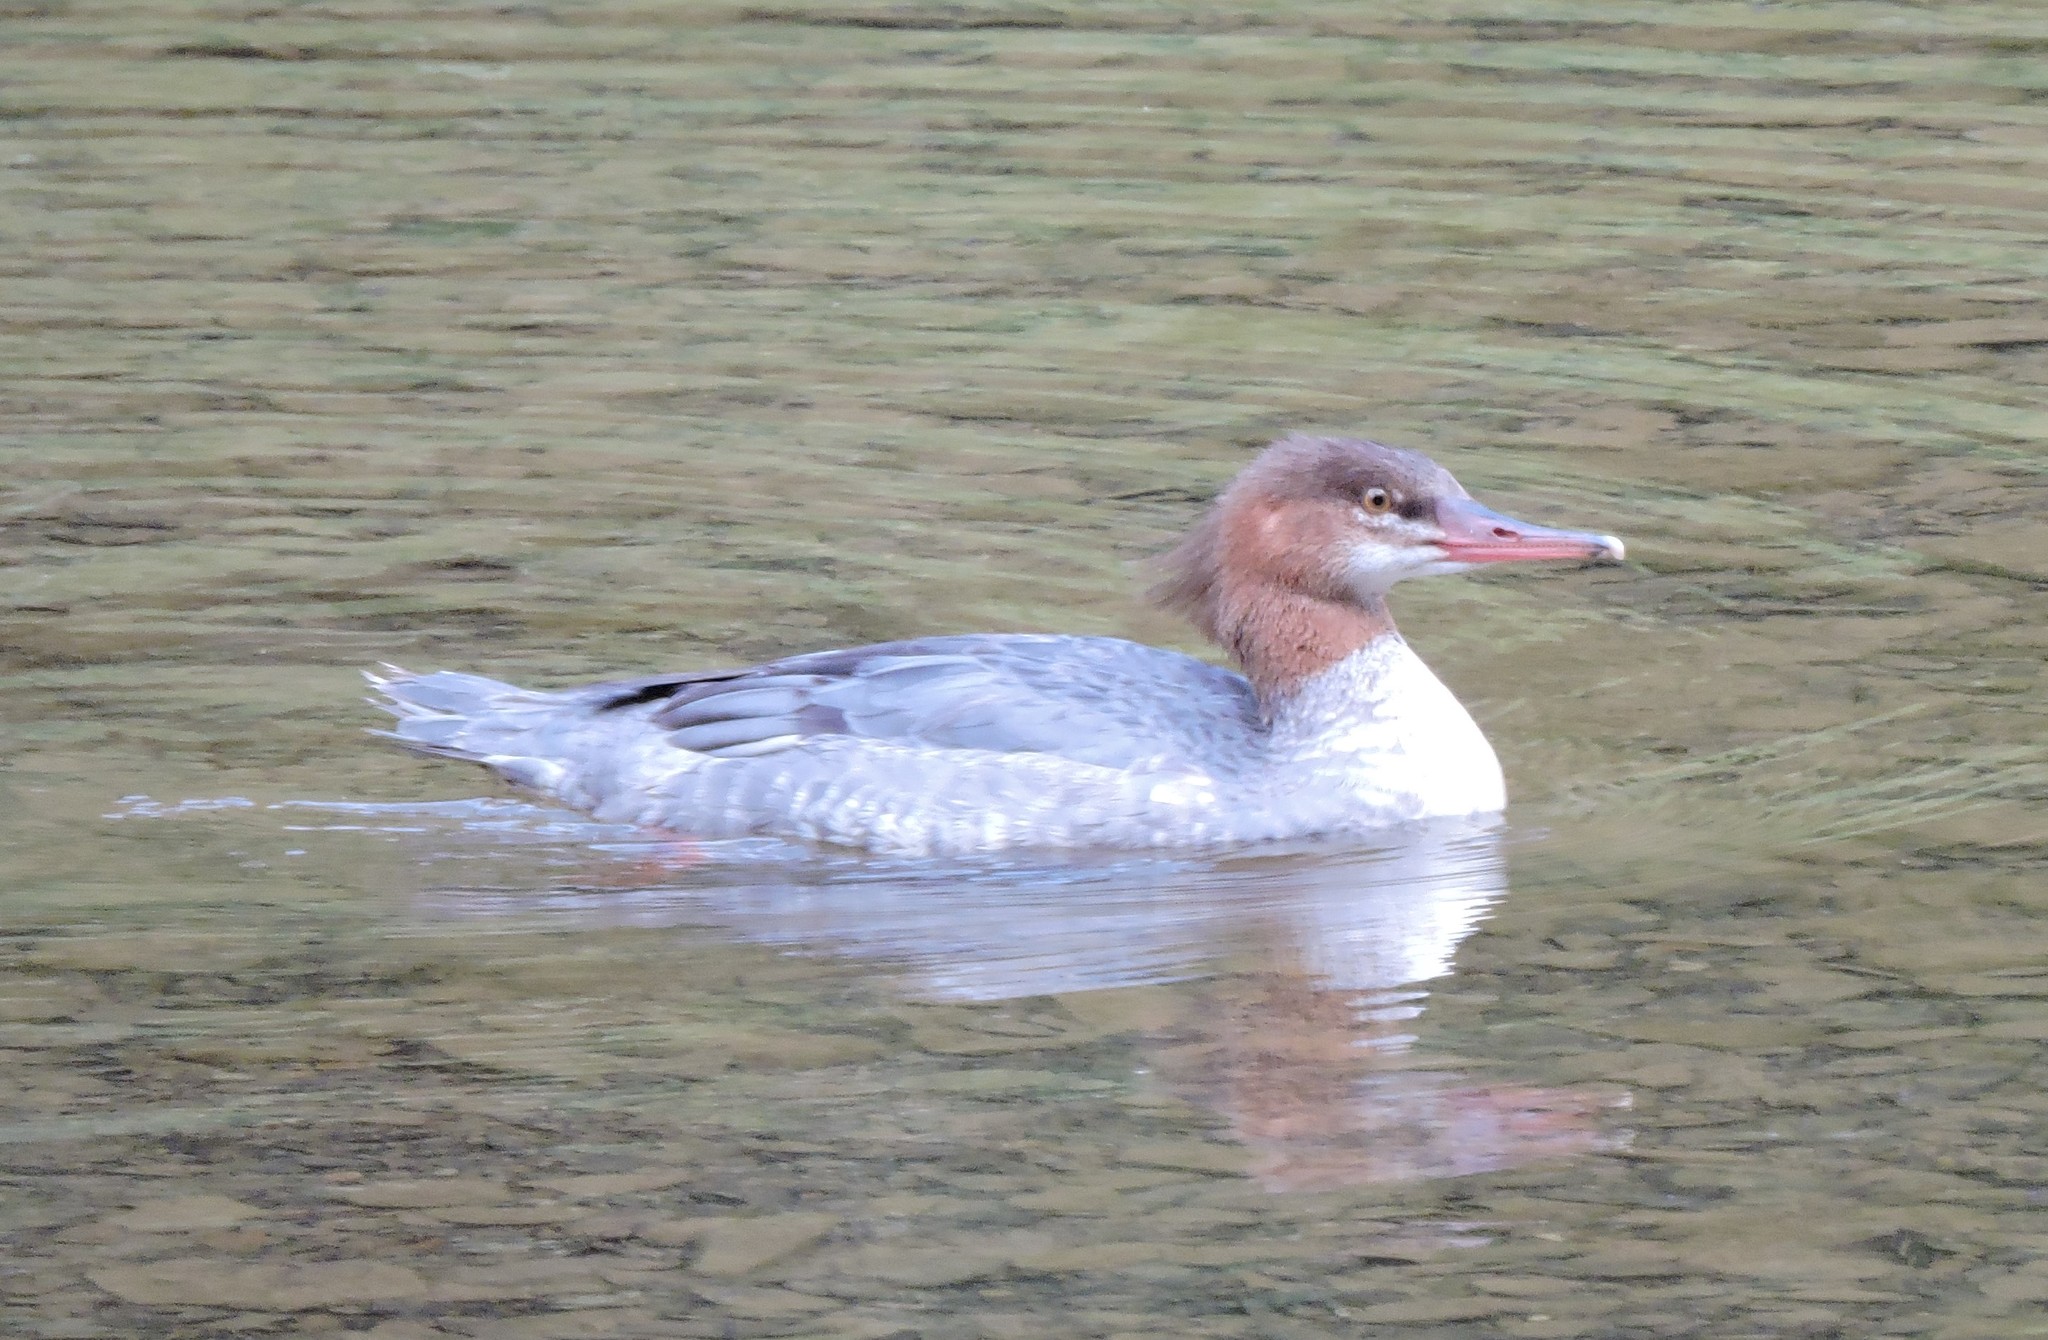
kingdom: Animalia
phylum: Chordata
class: Aves
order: Anseriformes
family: Anatidae
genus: Mergus
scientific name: Mergus merganser
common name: Common merganser
